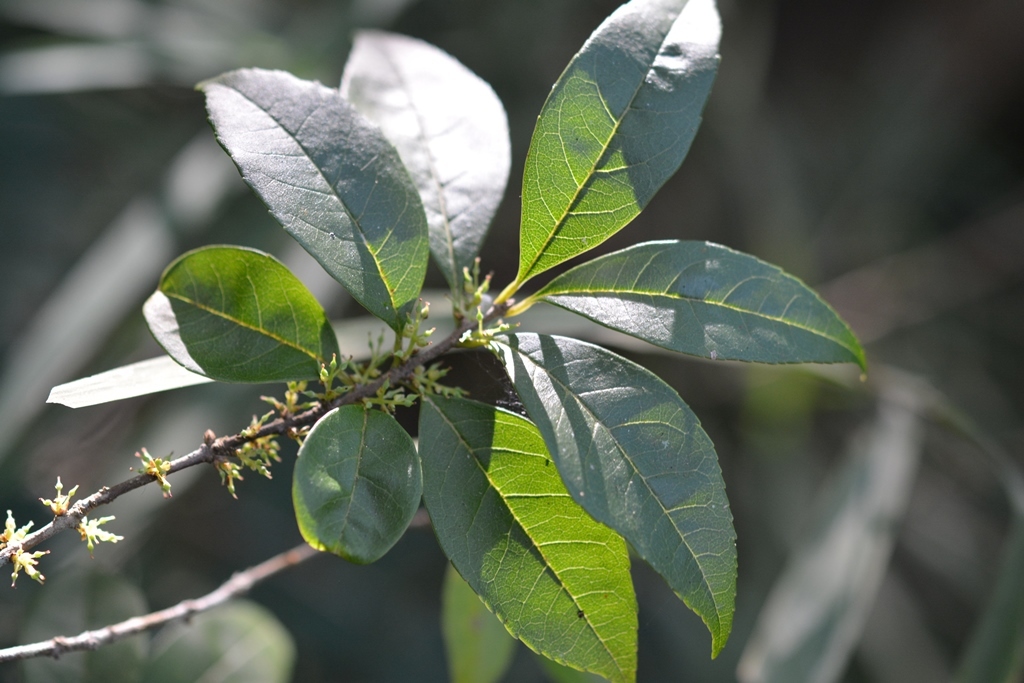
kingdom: Plantae
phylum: Tracheophyta
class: Magnoliopsida
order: Lamiales
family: Oleaceae
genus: Forestiera
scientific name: Forestiera rhamnifolia
